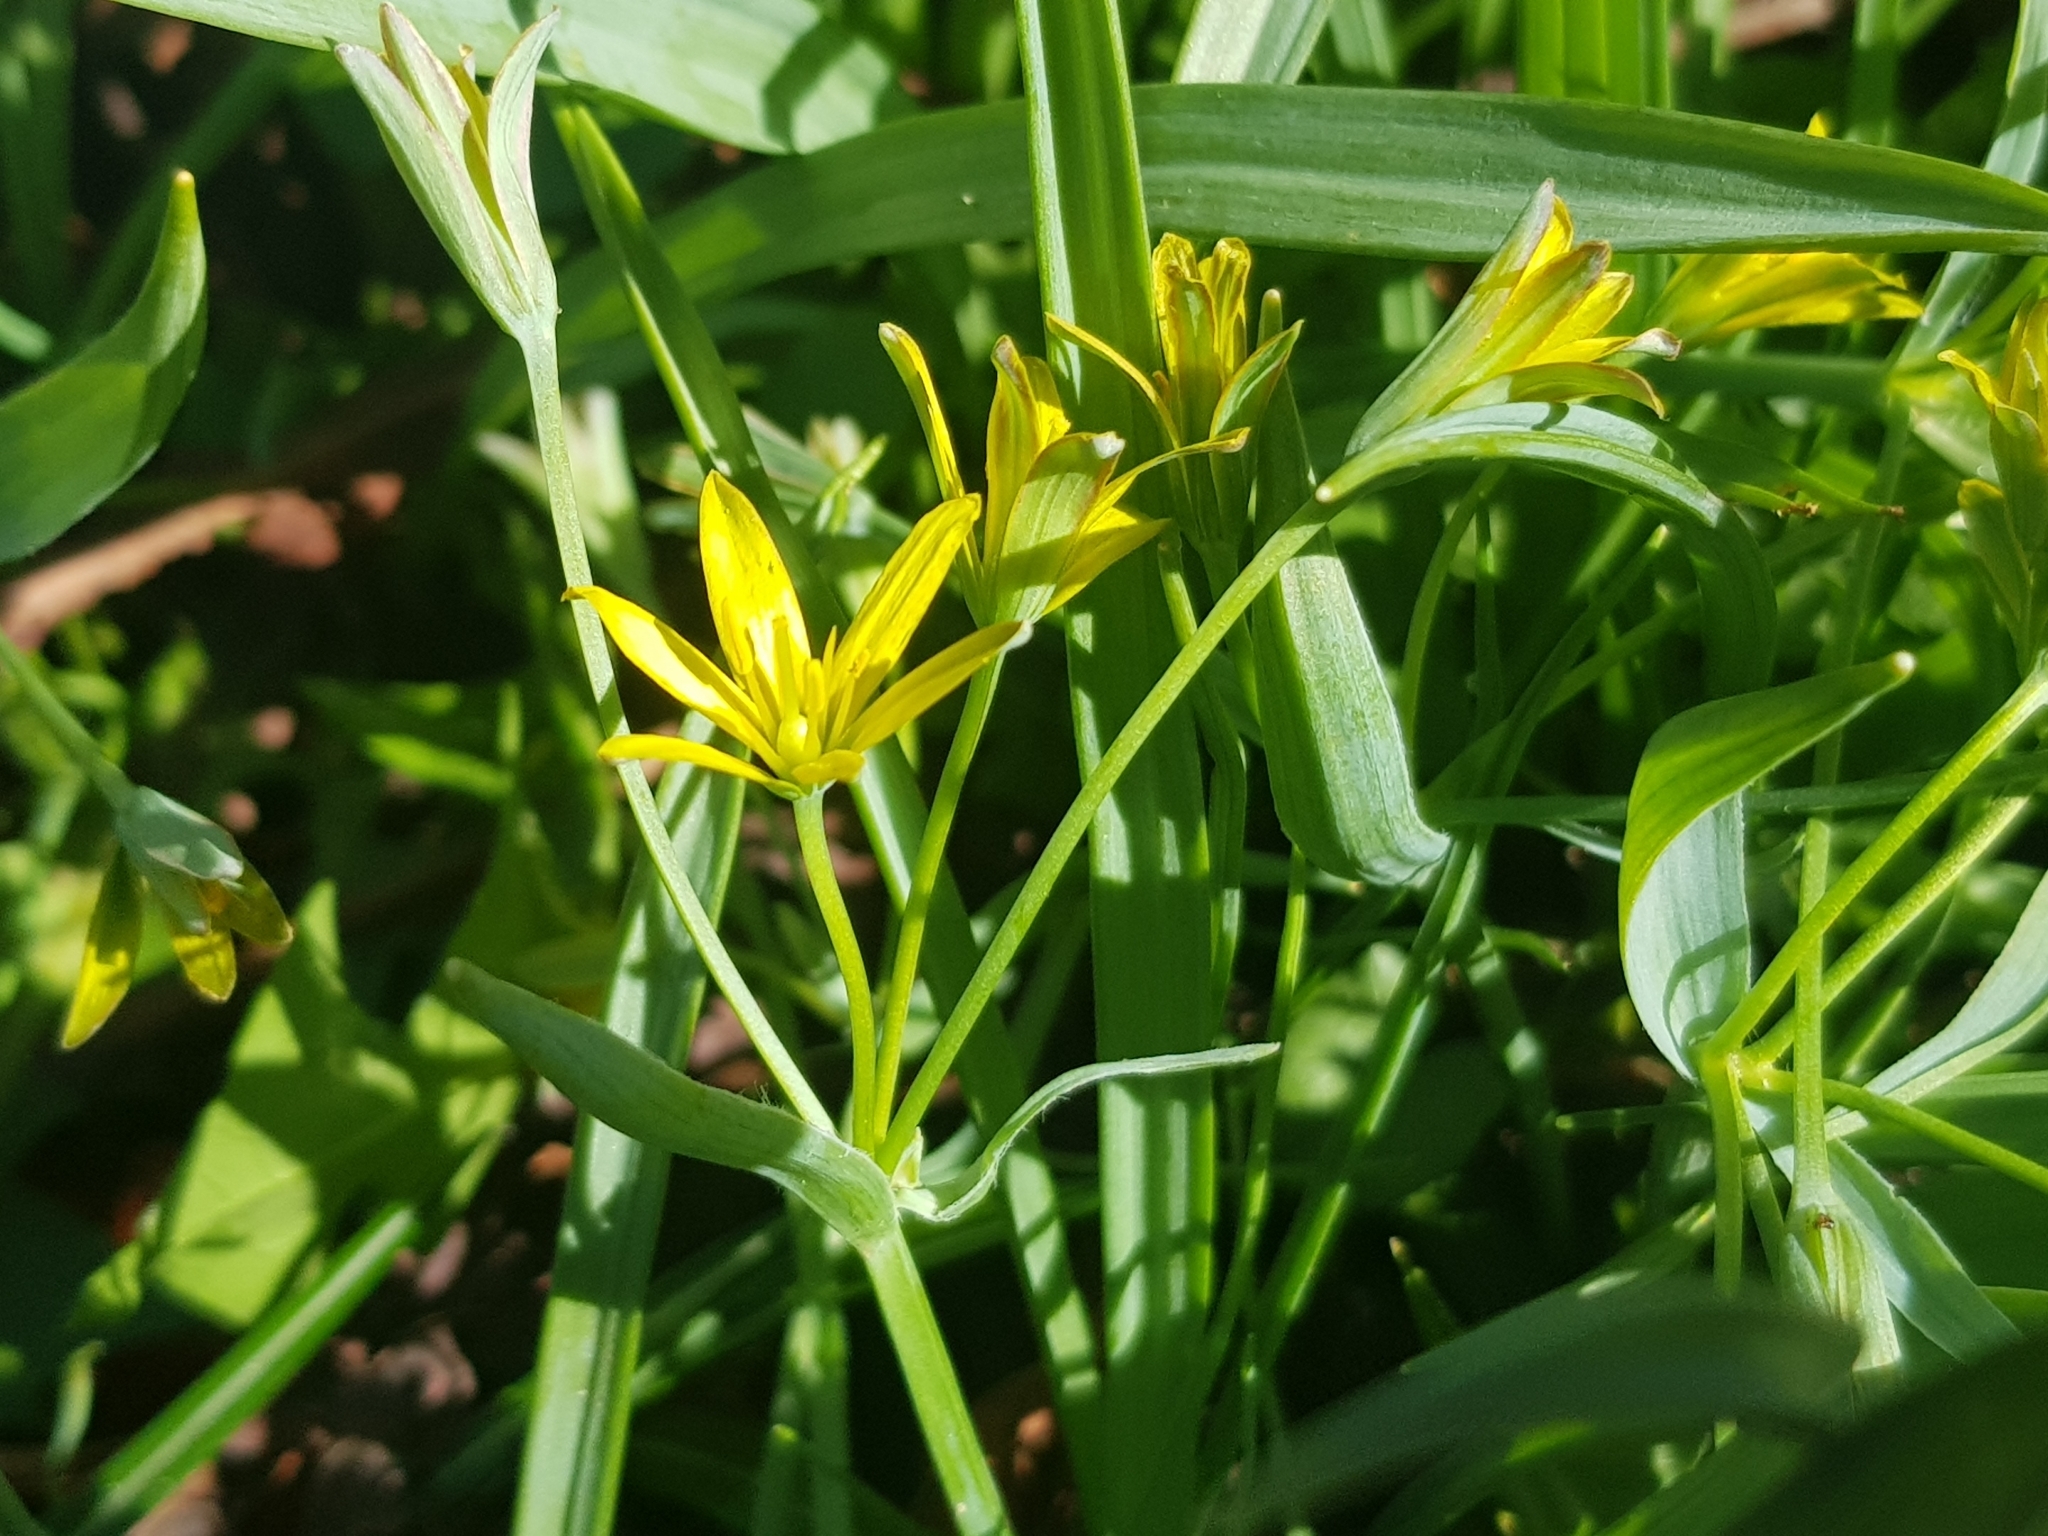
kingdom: Plantae
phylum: Tracheophyta
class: Liliopsida
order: Liliales
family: Liliaceae
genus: Gagea
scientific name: Gagea lutea
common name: Yellow star-of-bethlehem
